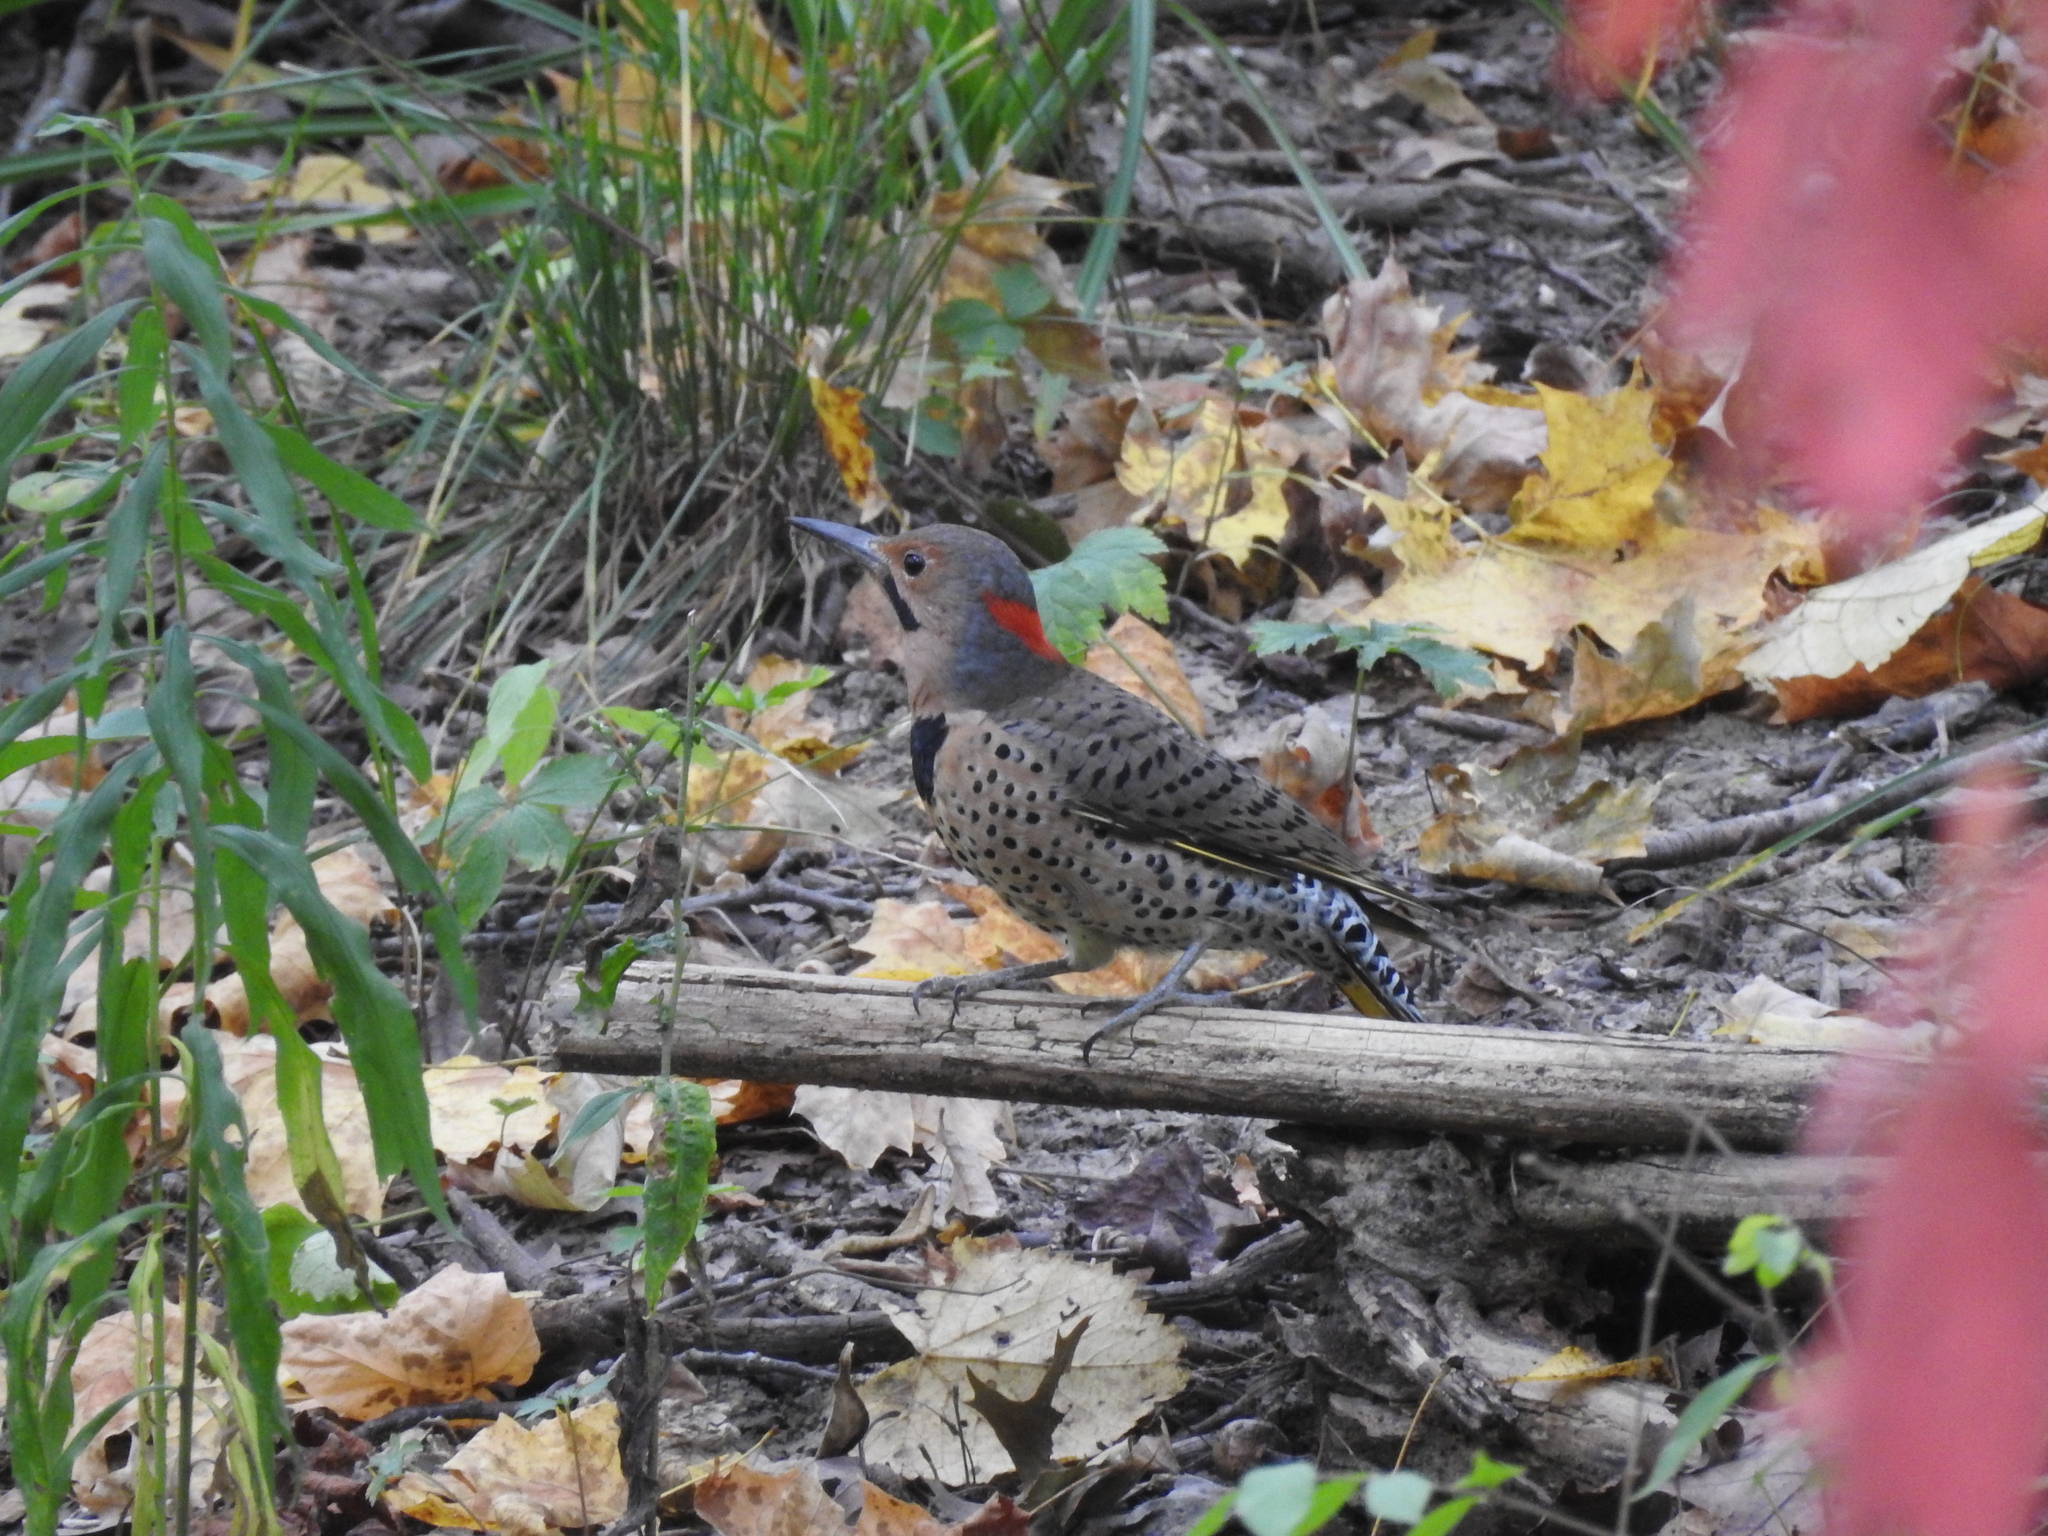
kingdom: Animalia
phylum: Chordata
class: Aves
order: Piciformes
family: Picidae
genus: Colaptes
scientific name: Colaptes auratus
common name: Northern flicker
